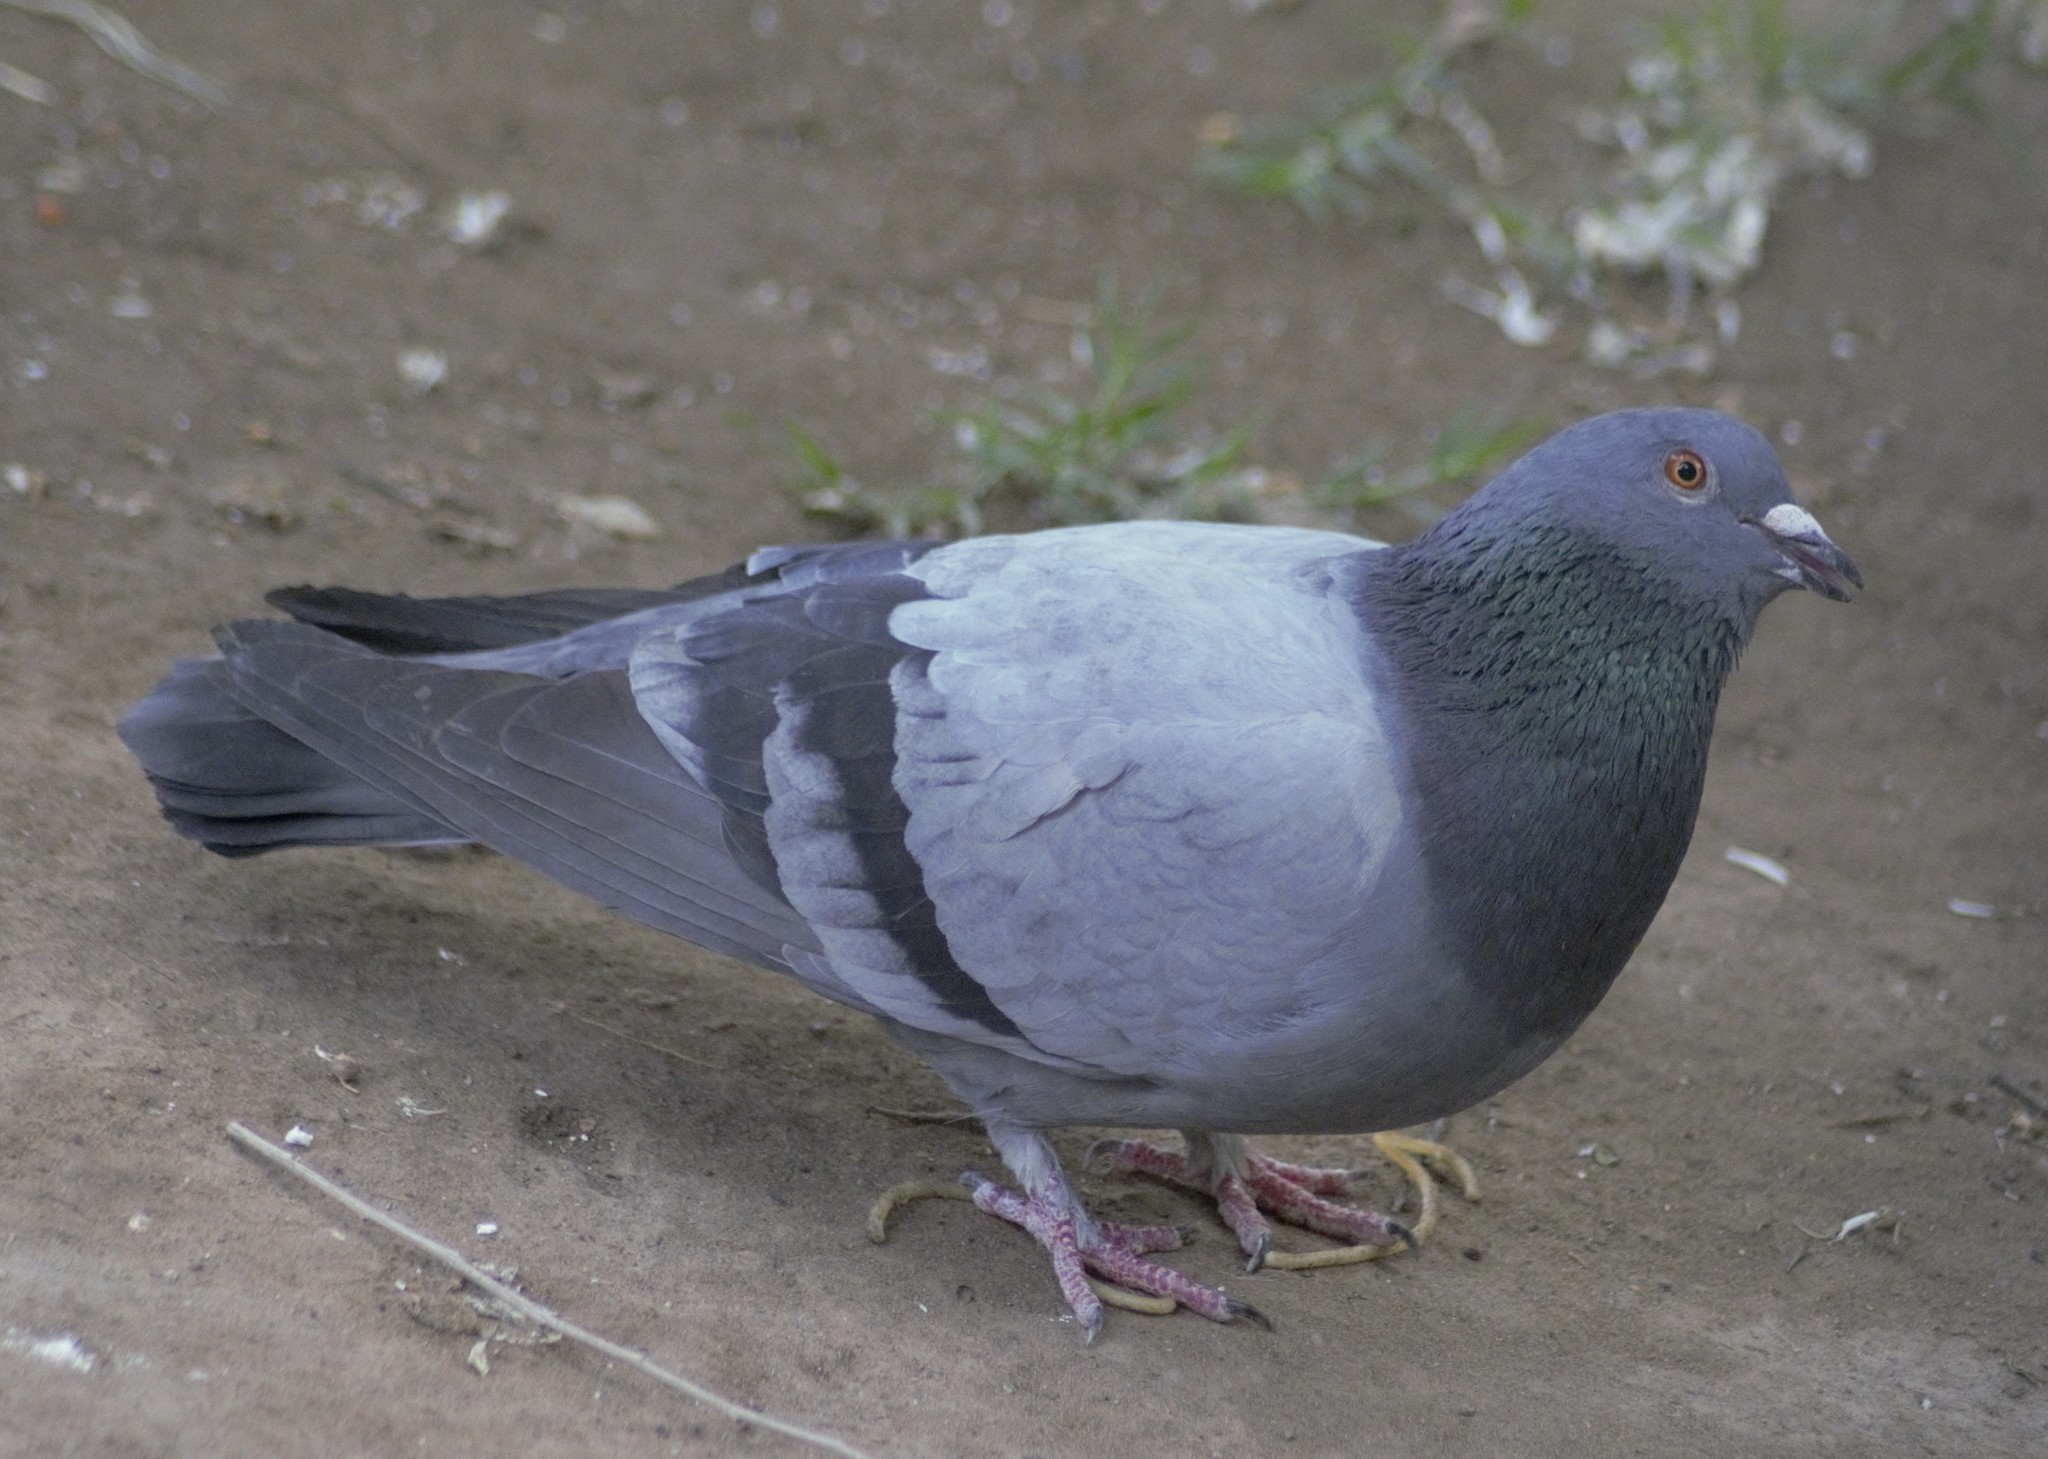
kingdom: Animalia
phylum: Chordata
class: Aves
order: Columbiformes
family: Columbidae
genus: Columba
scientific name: Columba livia
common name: Rock pigeon
